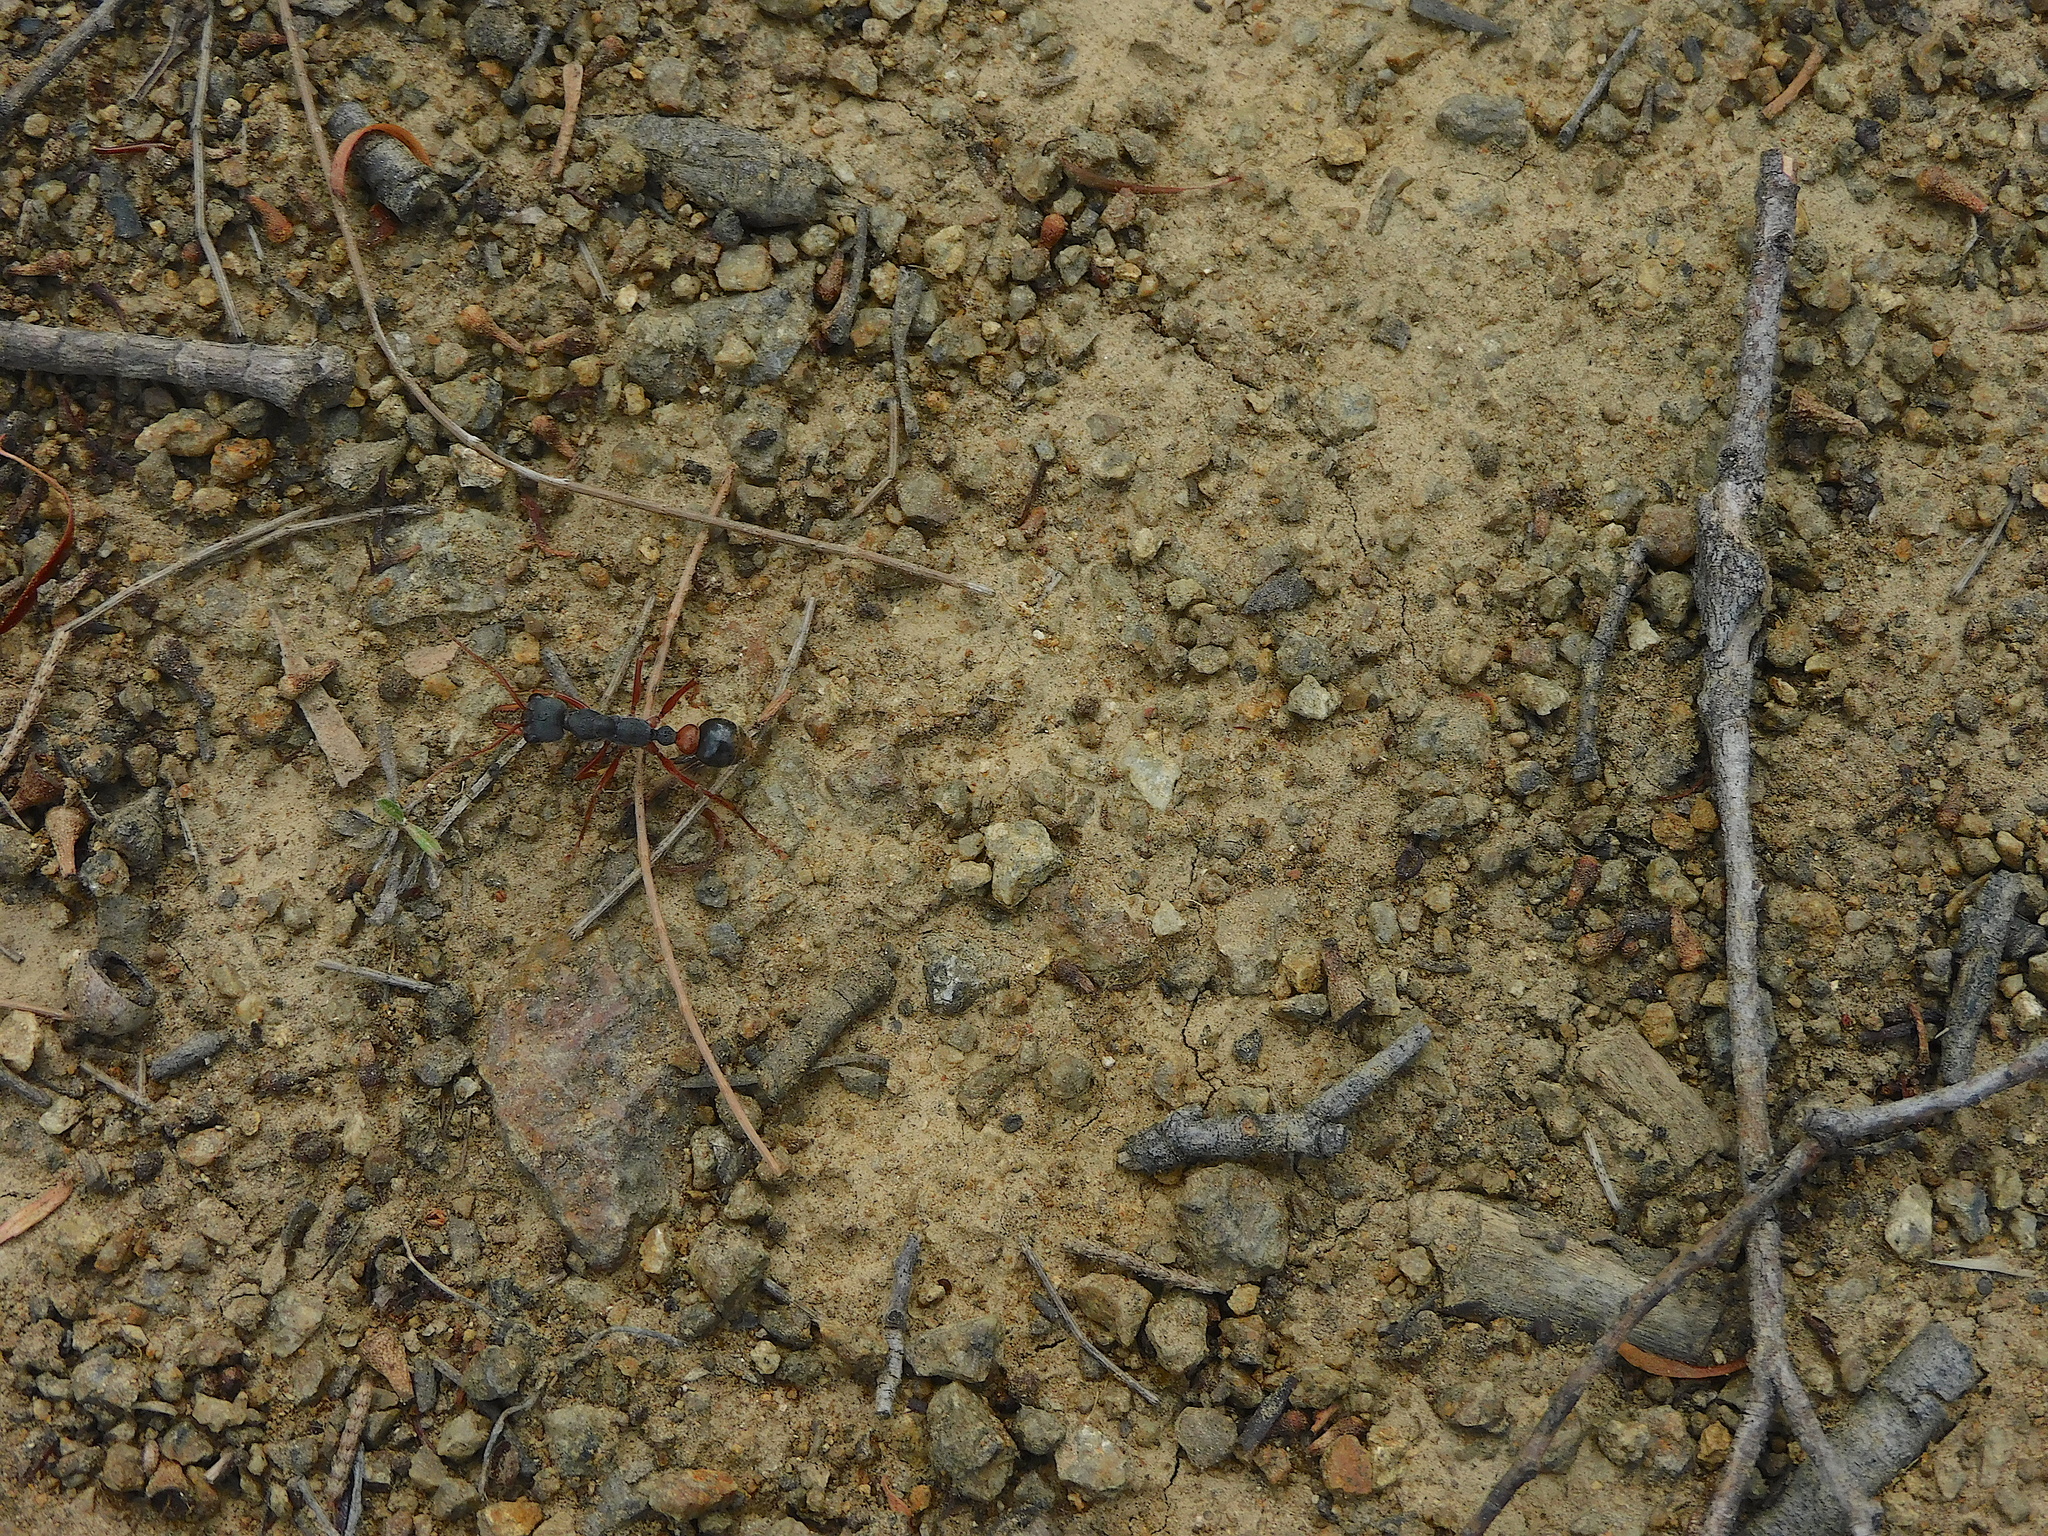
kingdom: Animalia
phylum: Arthropoda
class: Insecta
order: Hymenoptera
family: Formicidae
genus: Myrmecia
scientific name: Myrmecia esuriens
